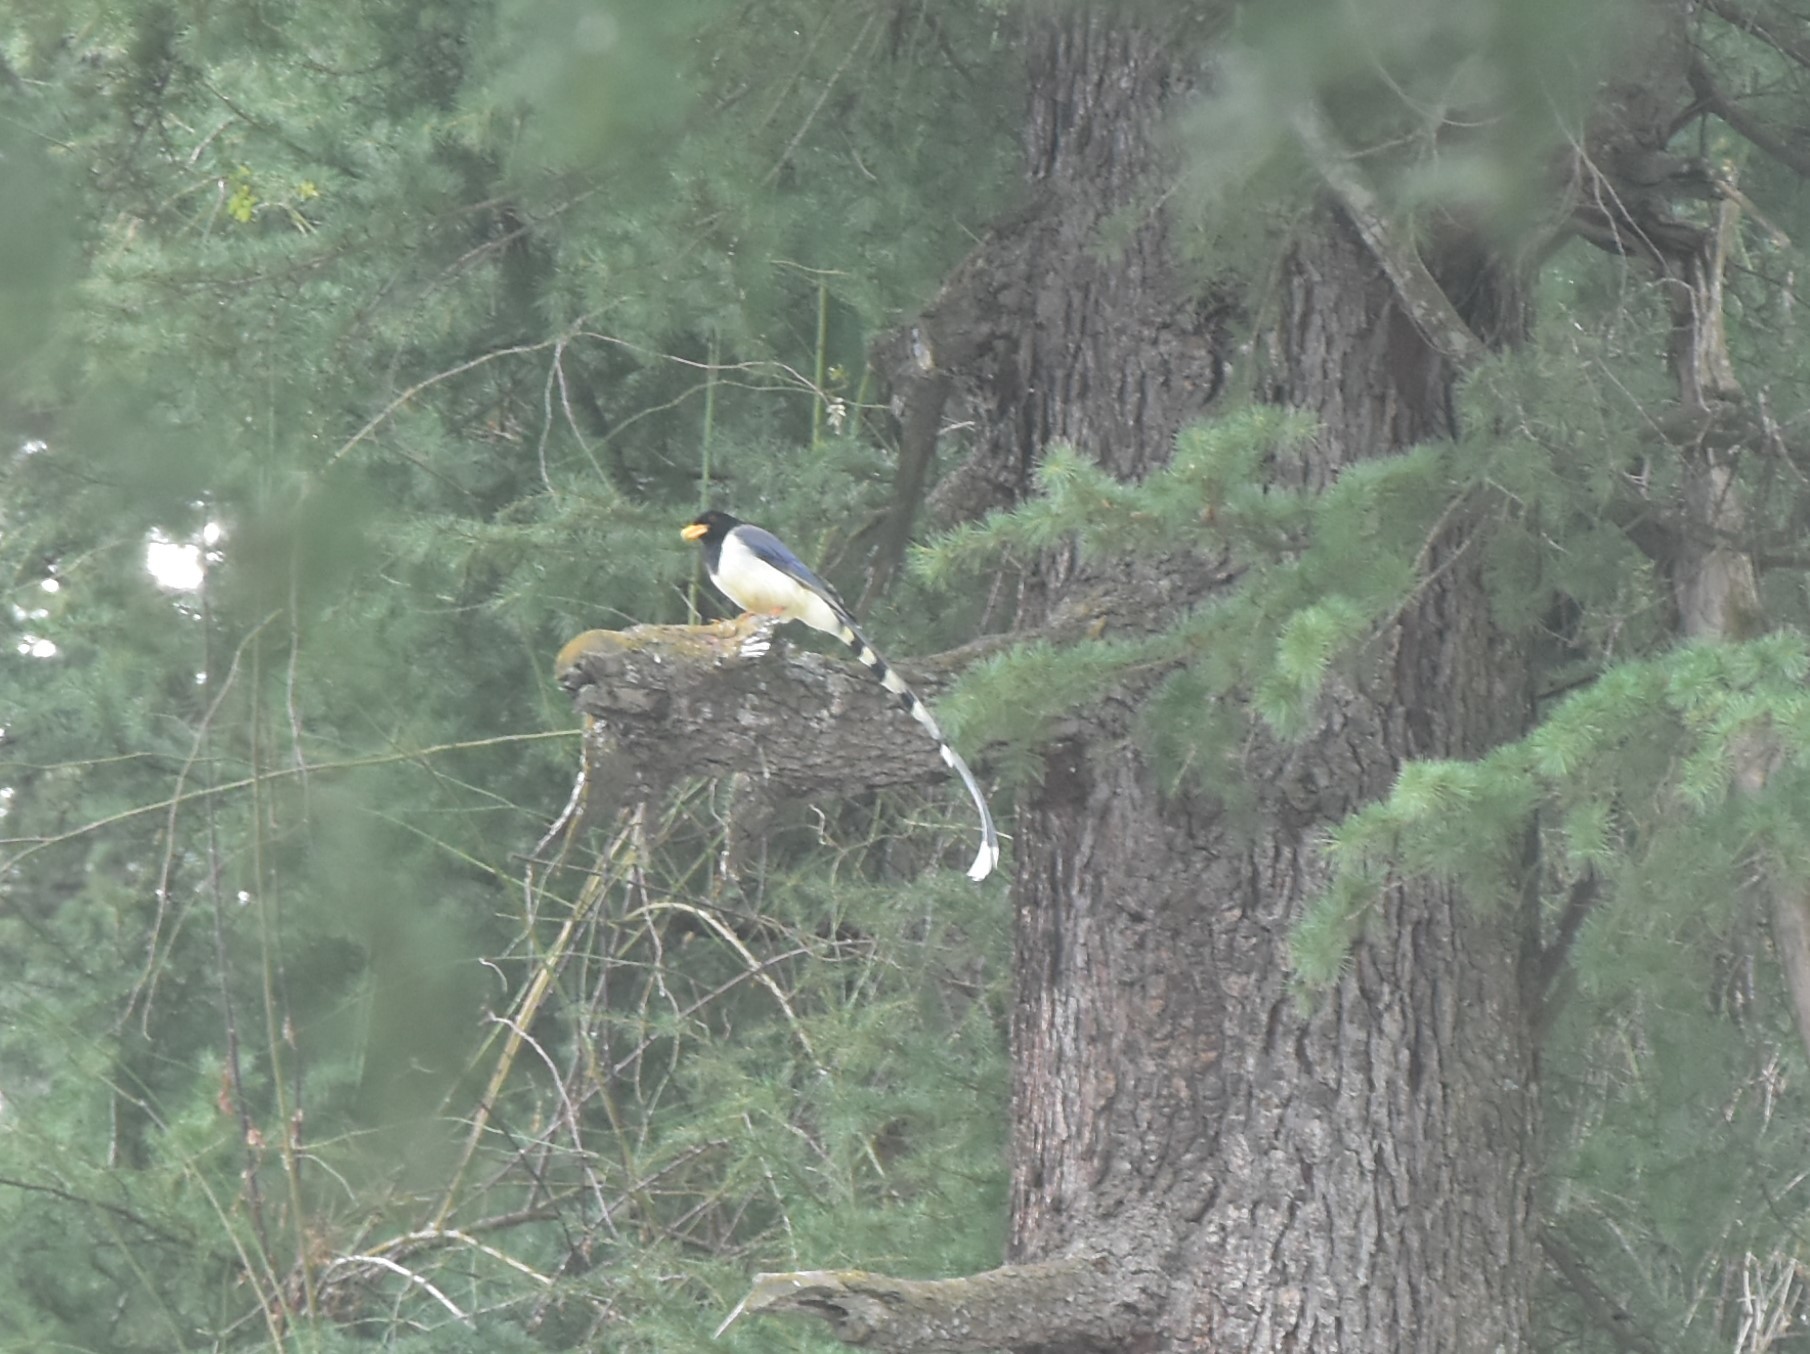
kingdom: Animalia
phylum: Chordata
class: Aves
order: Passeriformes
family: Corvidae
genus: Urocissa
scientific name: Urocissa flavirostris
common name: Yellow-billed blue magpie
